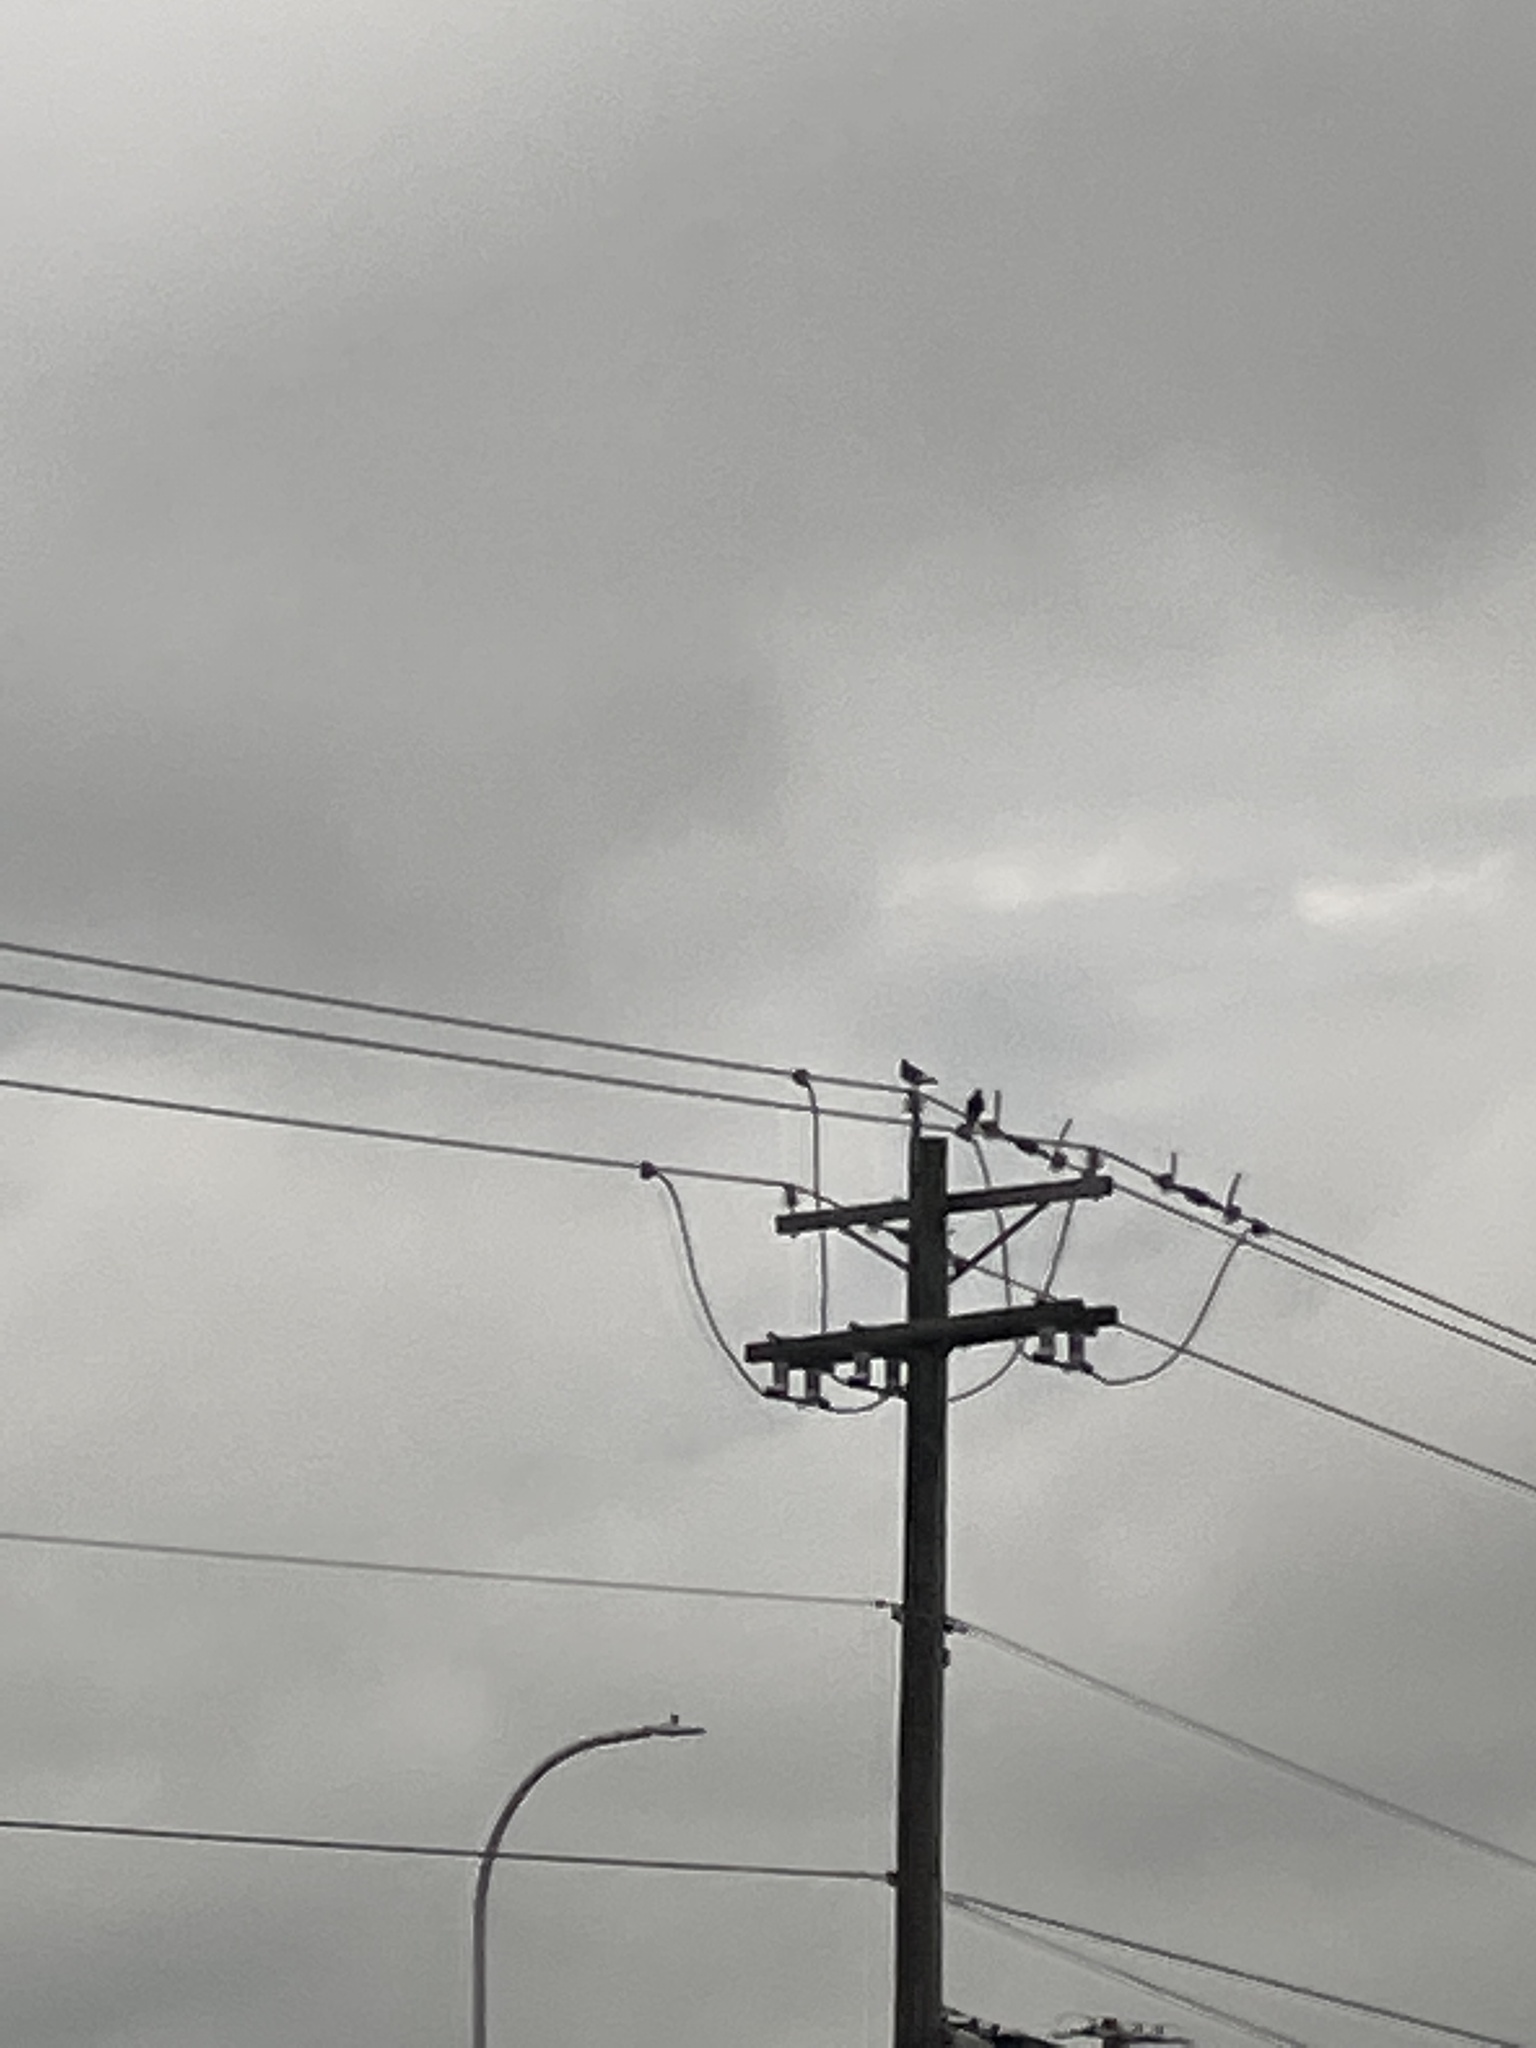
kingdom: Animalia
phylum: Chordata
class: Aves
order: Columbiformes
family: Columbidae
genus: Columba
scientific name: Columba livia
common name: Rock pigeon
